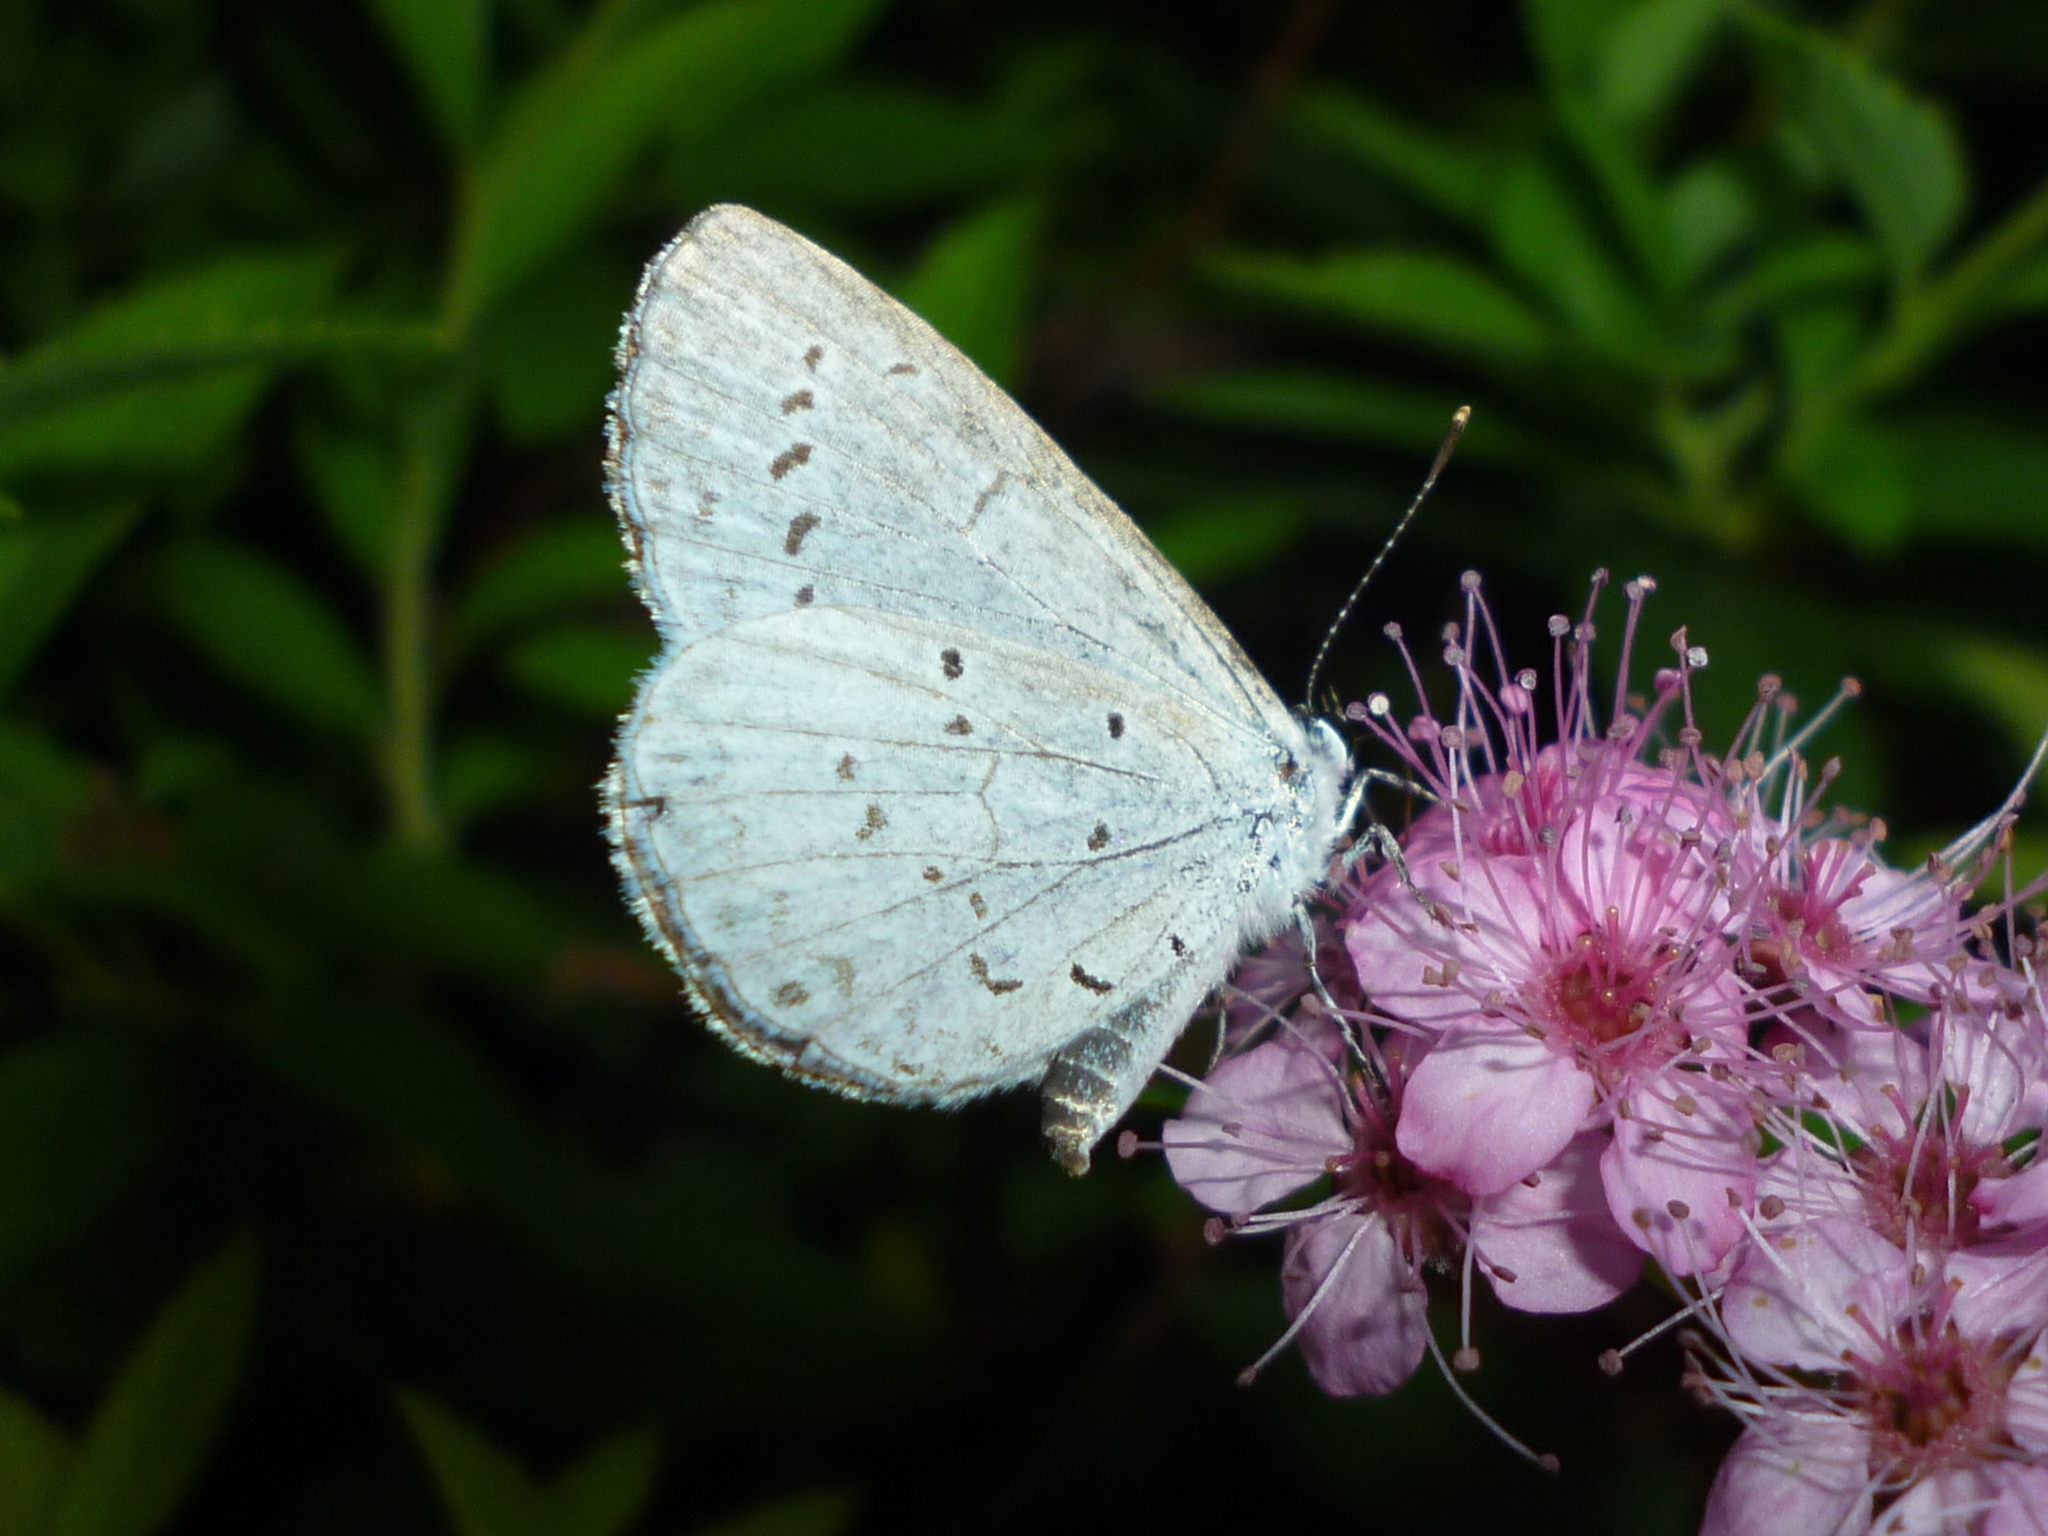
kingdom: Animalia
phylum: Arthropoda
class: Insecta
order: Lepidoptera
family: Lycaenidae
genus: Cyaniris
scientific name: Cyaniris neglecta
